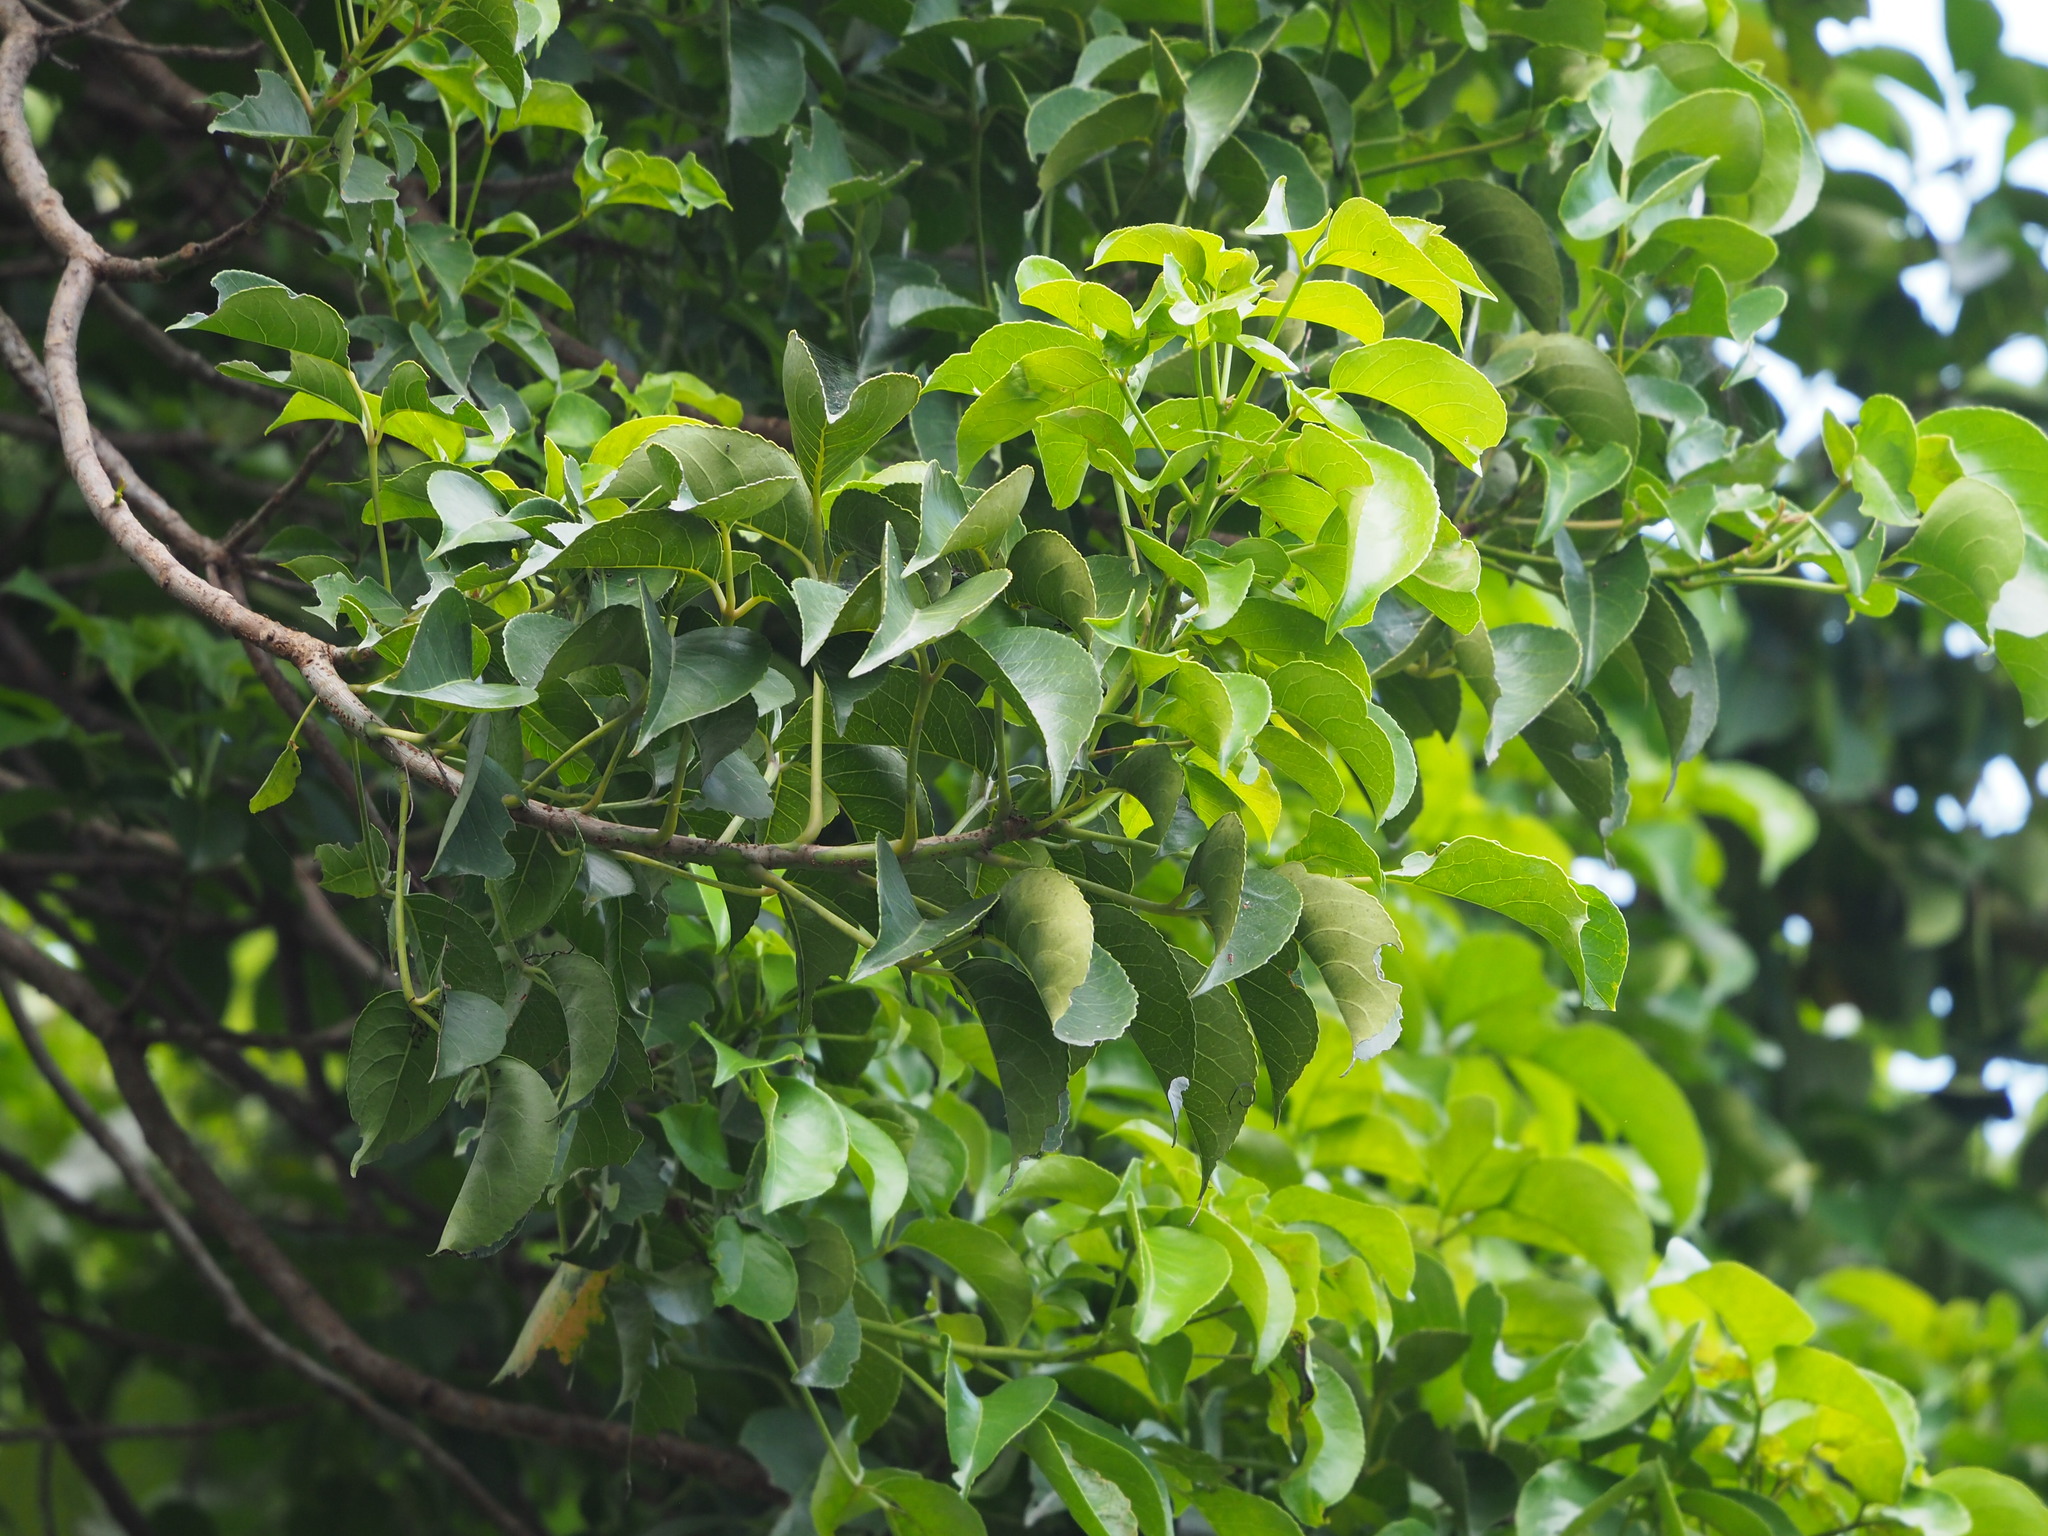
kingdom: Plantae
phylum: Tracheophyta
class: Magnoliopsida
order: Malpighiales
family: Phyllanthaceae
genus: Bischofia
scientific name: Bischofia javanica
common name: Javanese bishopwood
